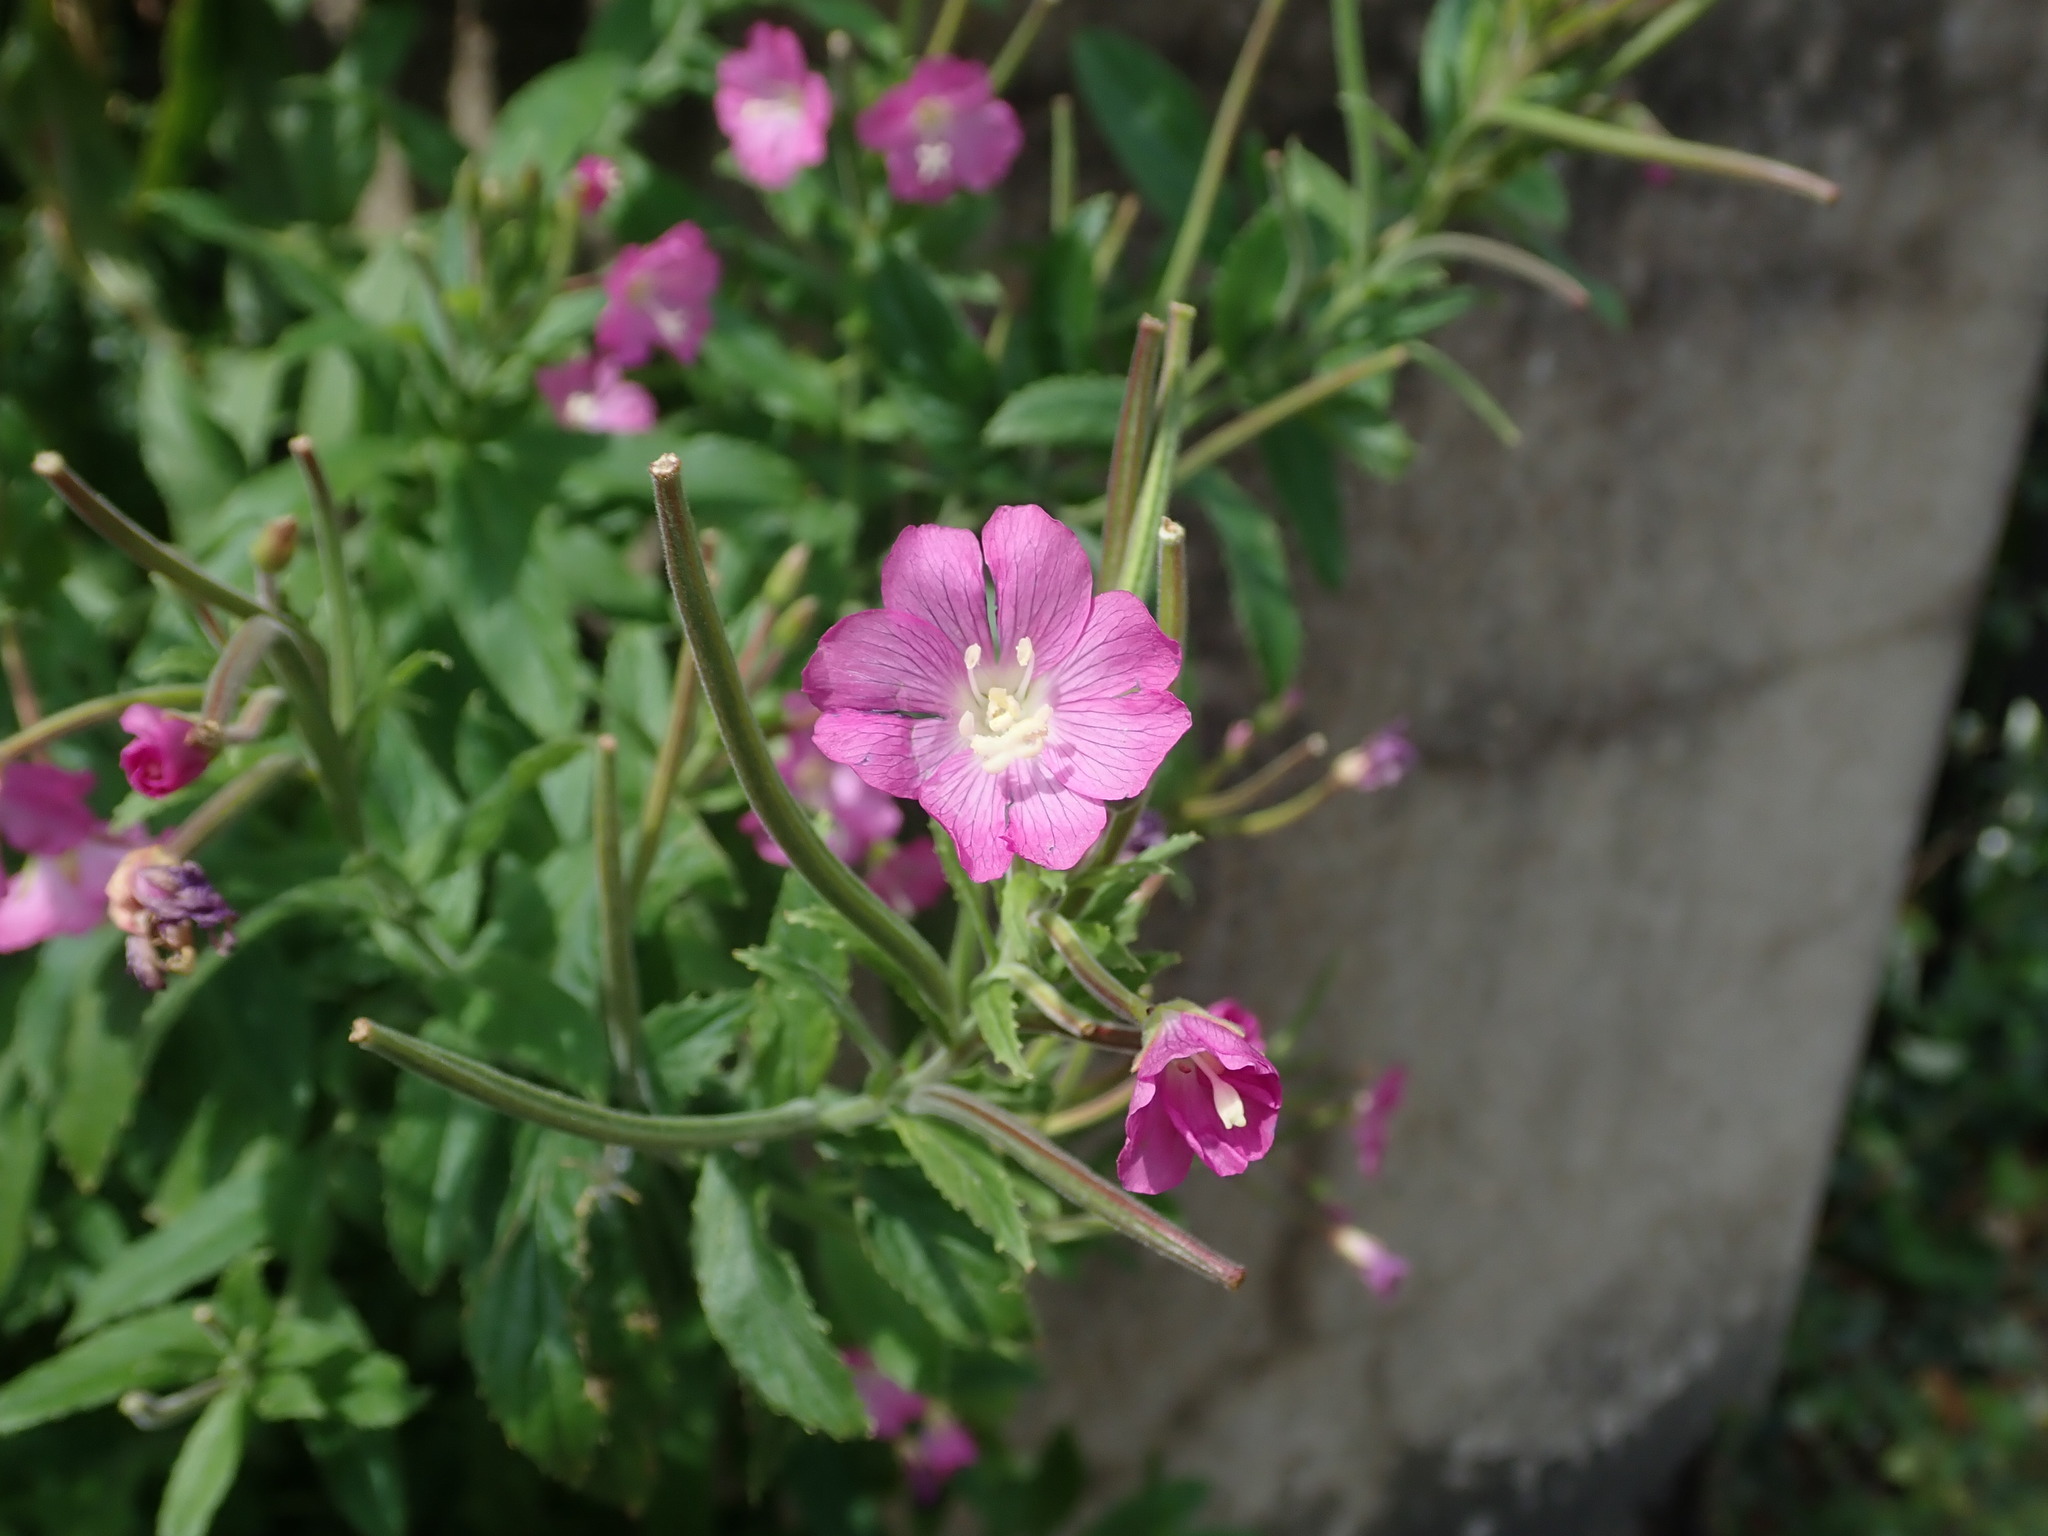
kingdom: Plantae
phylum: Tracheophyta
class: Magnoliopsida
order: Myrtales
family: Onagraceae
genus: Epilobium
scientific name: Epilobium hirsutum
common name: Great willowherb
